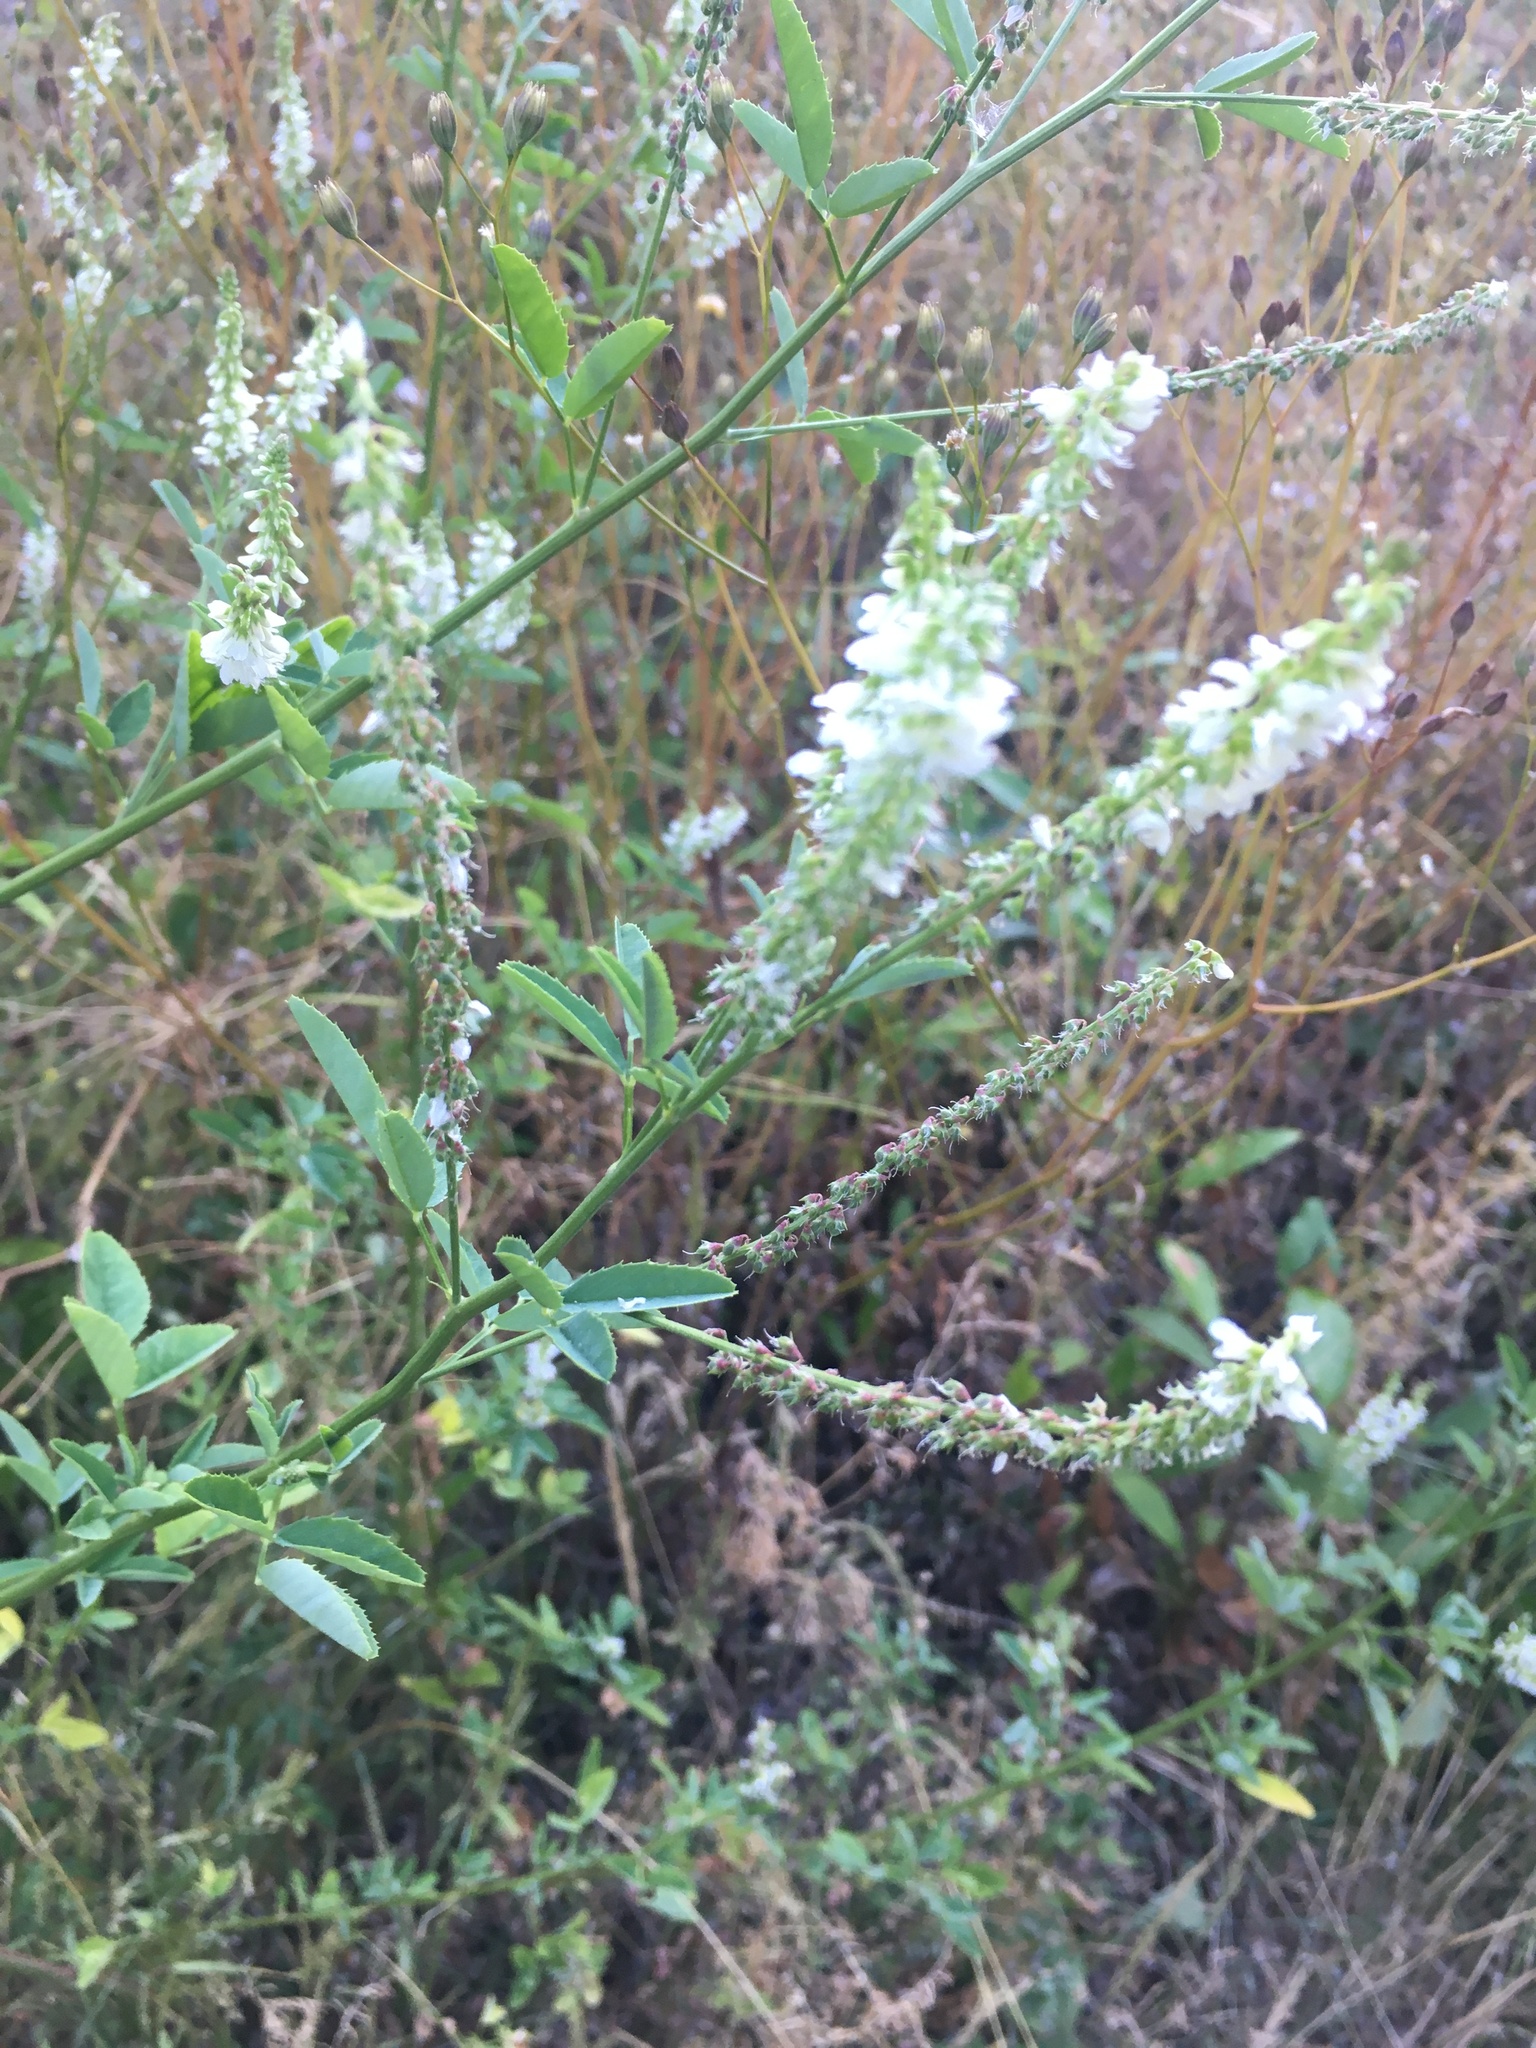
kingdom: Plantae
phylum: Tracheophyta
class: Magnoliopsida
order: Fabales
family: Fabaceae
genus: Melilotus
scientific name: Melilotus albus
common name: White melilot
